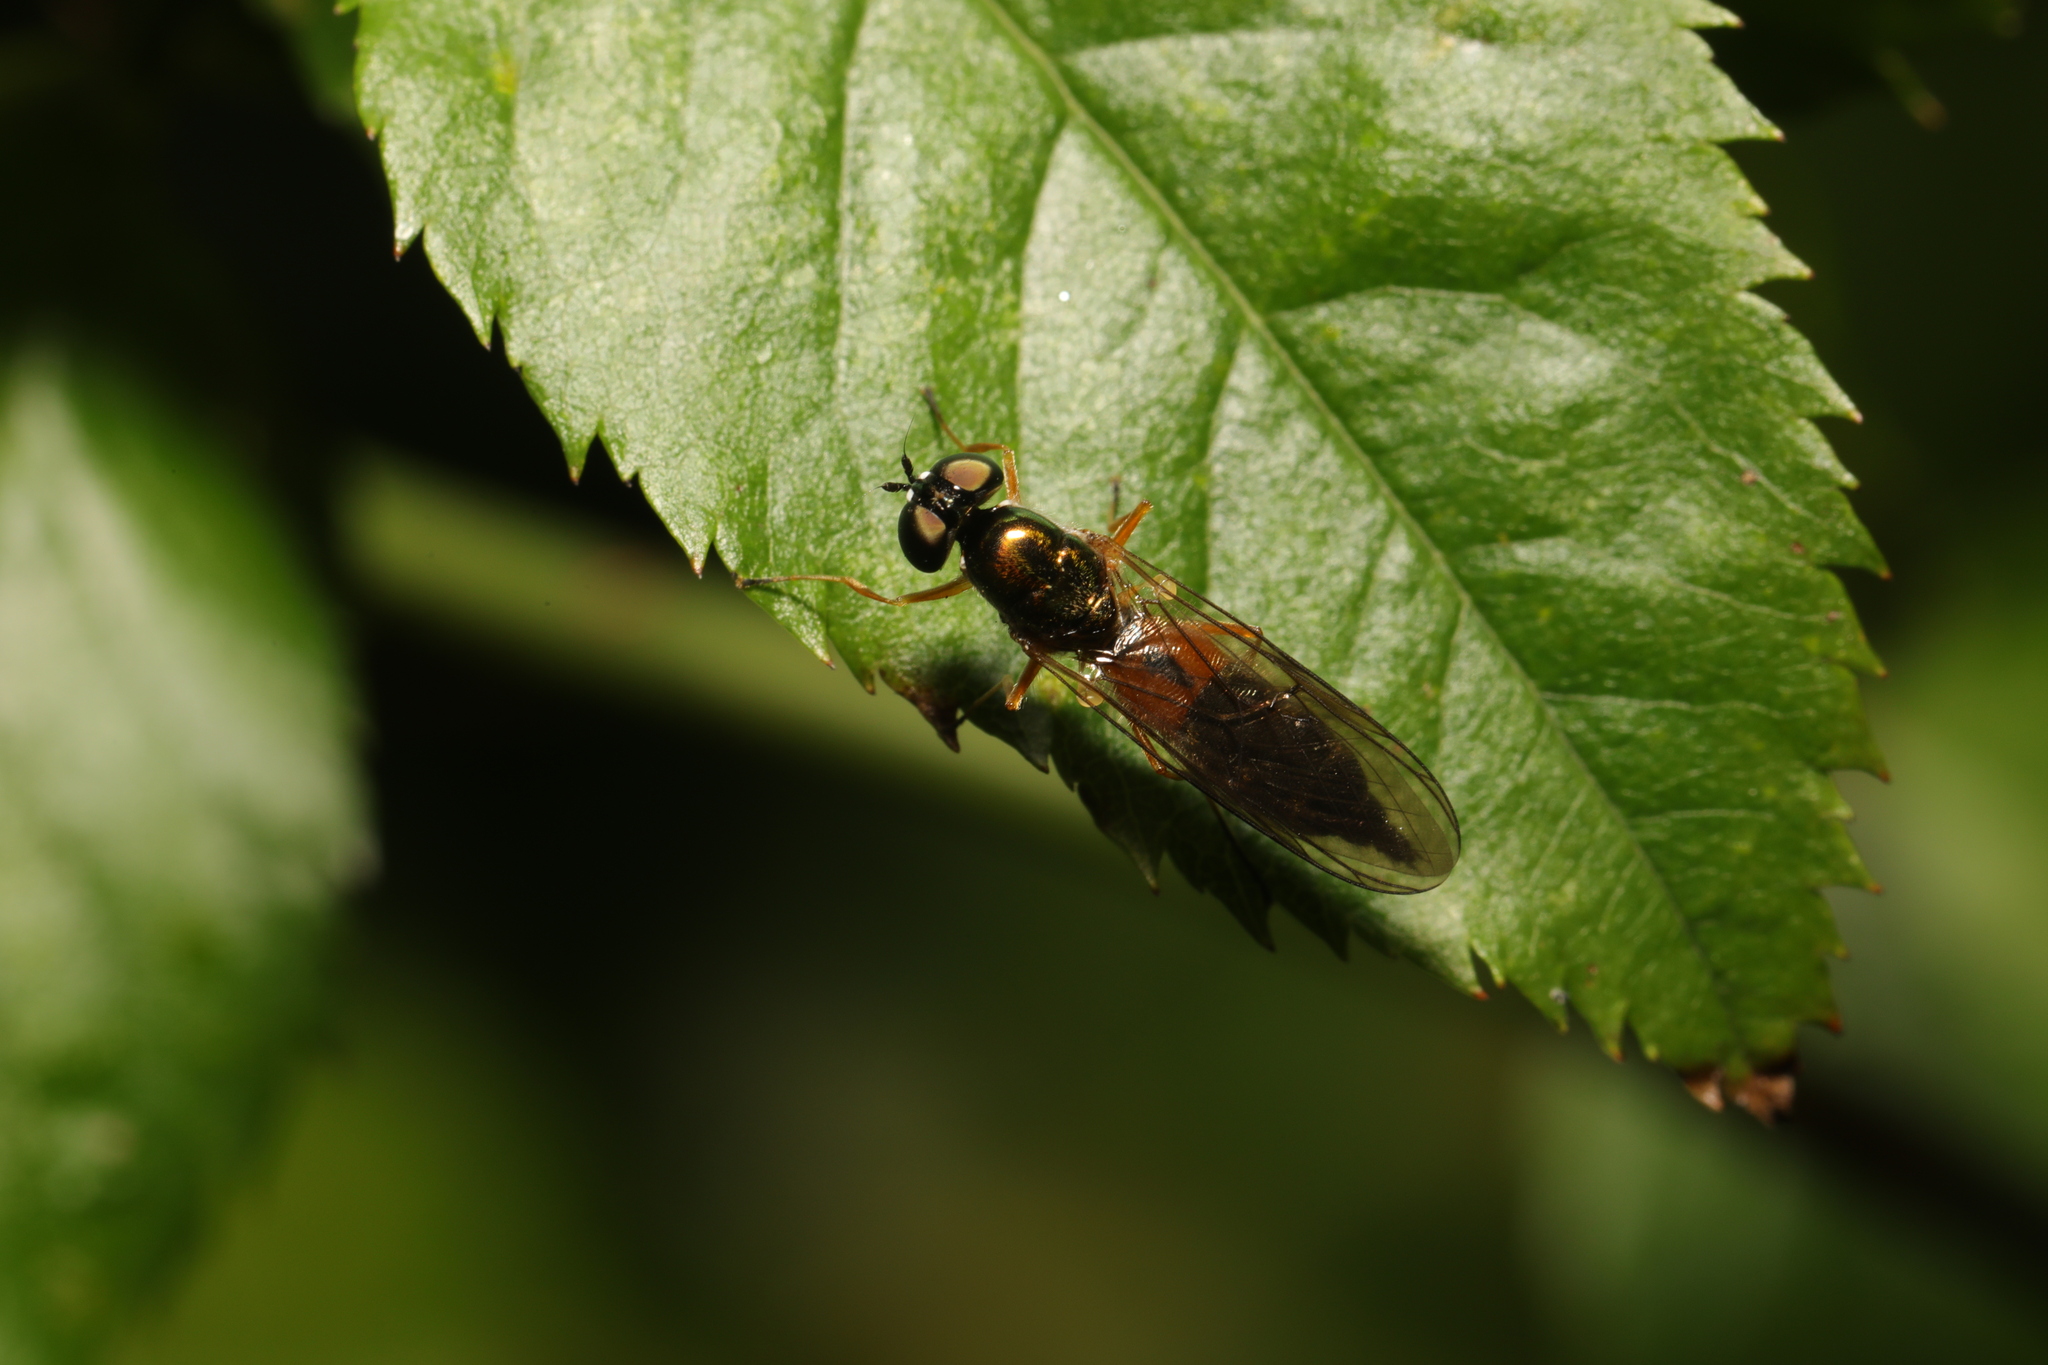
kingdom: Animalia
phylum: Arthropoda
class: Insecta
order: Diptera
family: Stratiomyidae
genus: Sargus
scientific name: Sargus bipunctatus
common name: Twin-spot centurion
